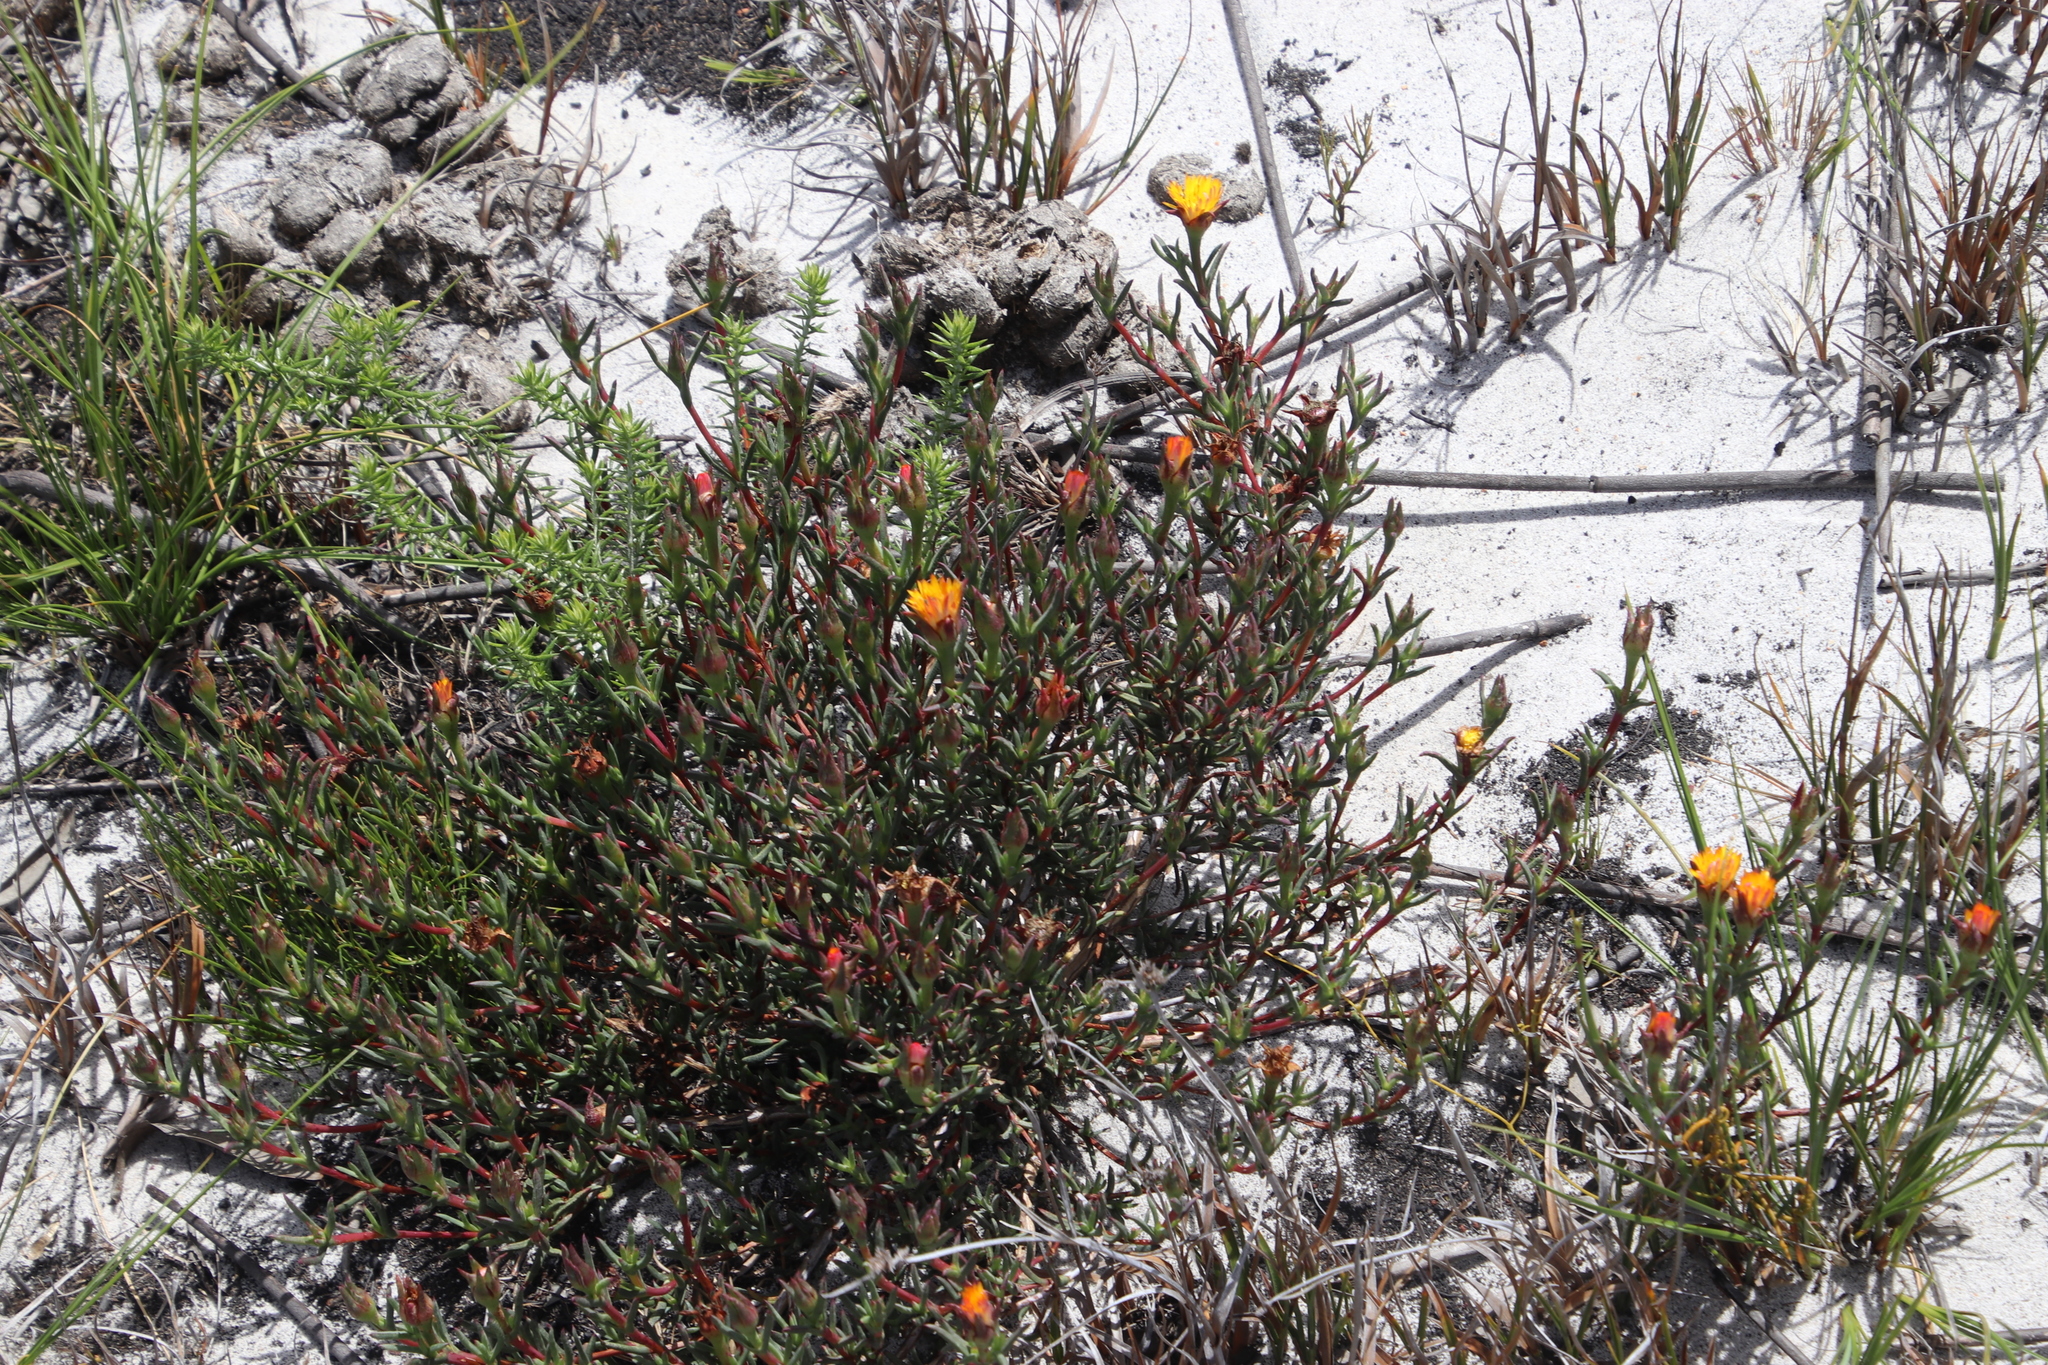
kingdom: Plantae
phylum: Tracheophyta
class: Magnoliopsida
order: Caryophyllales
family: Aizoaceae
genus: Lampranthus
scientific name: Lampranthus bicolor
